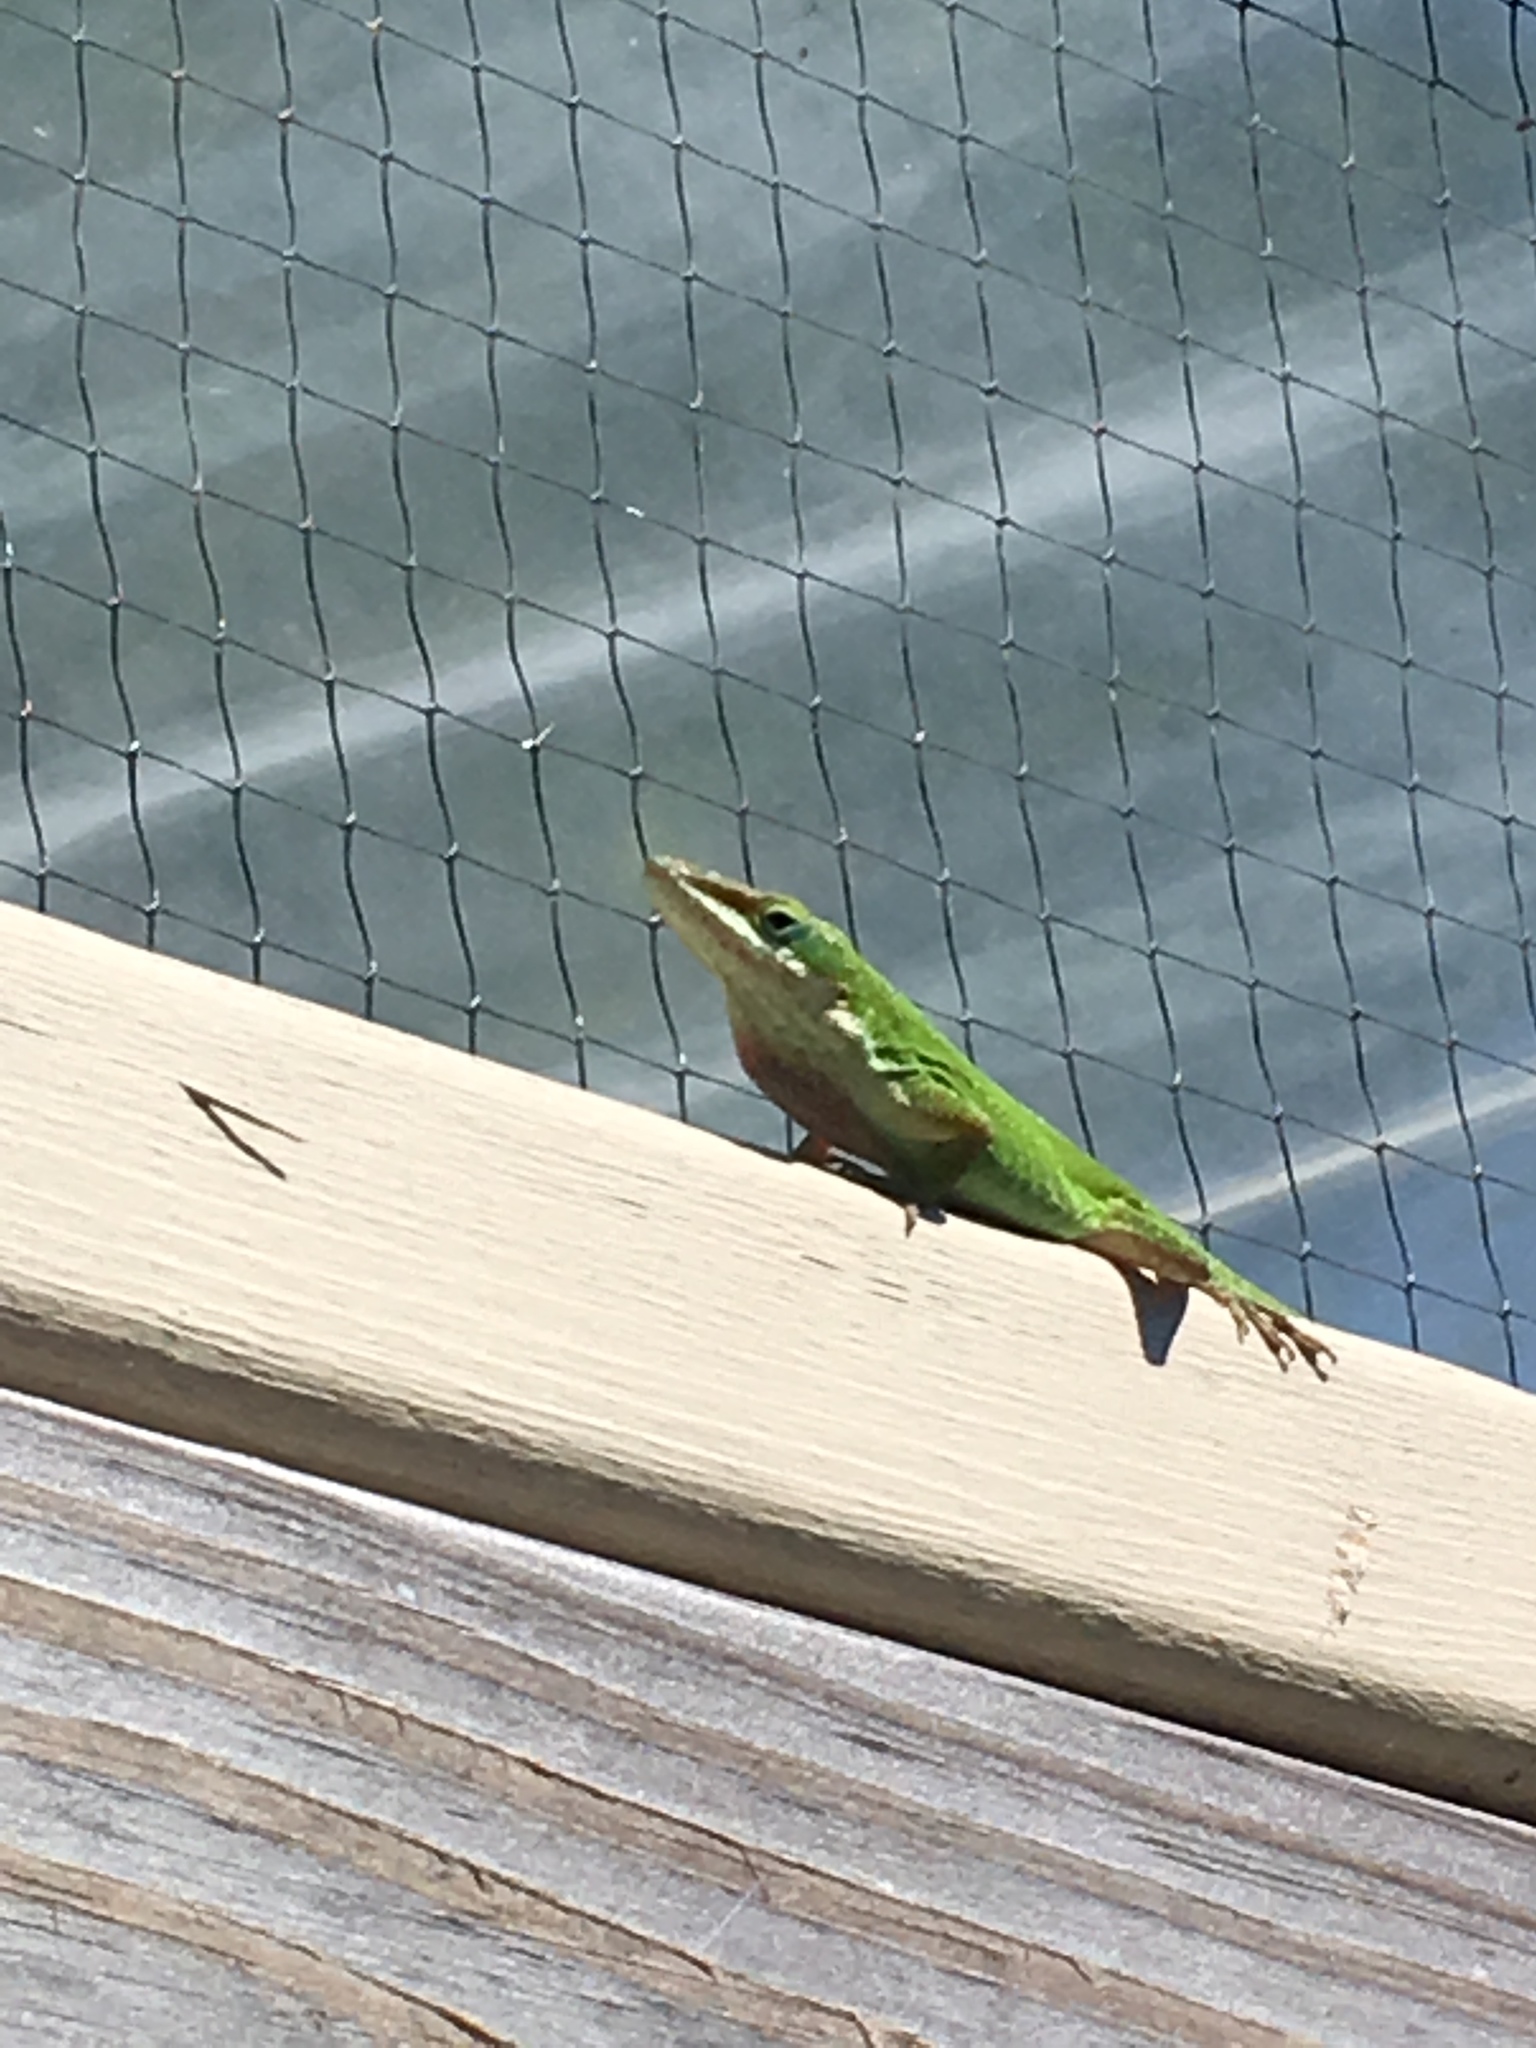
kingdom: Animalia
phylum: Chordata
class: Squamata
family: Dactyloidae
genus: Anolis
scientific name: Anolis carolinensis
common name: Green anole
